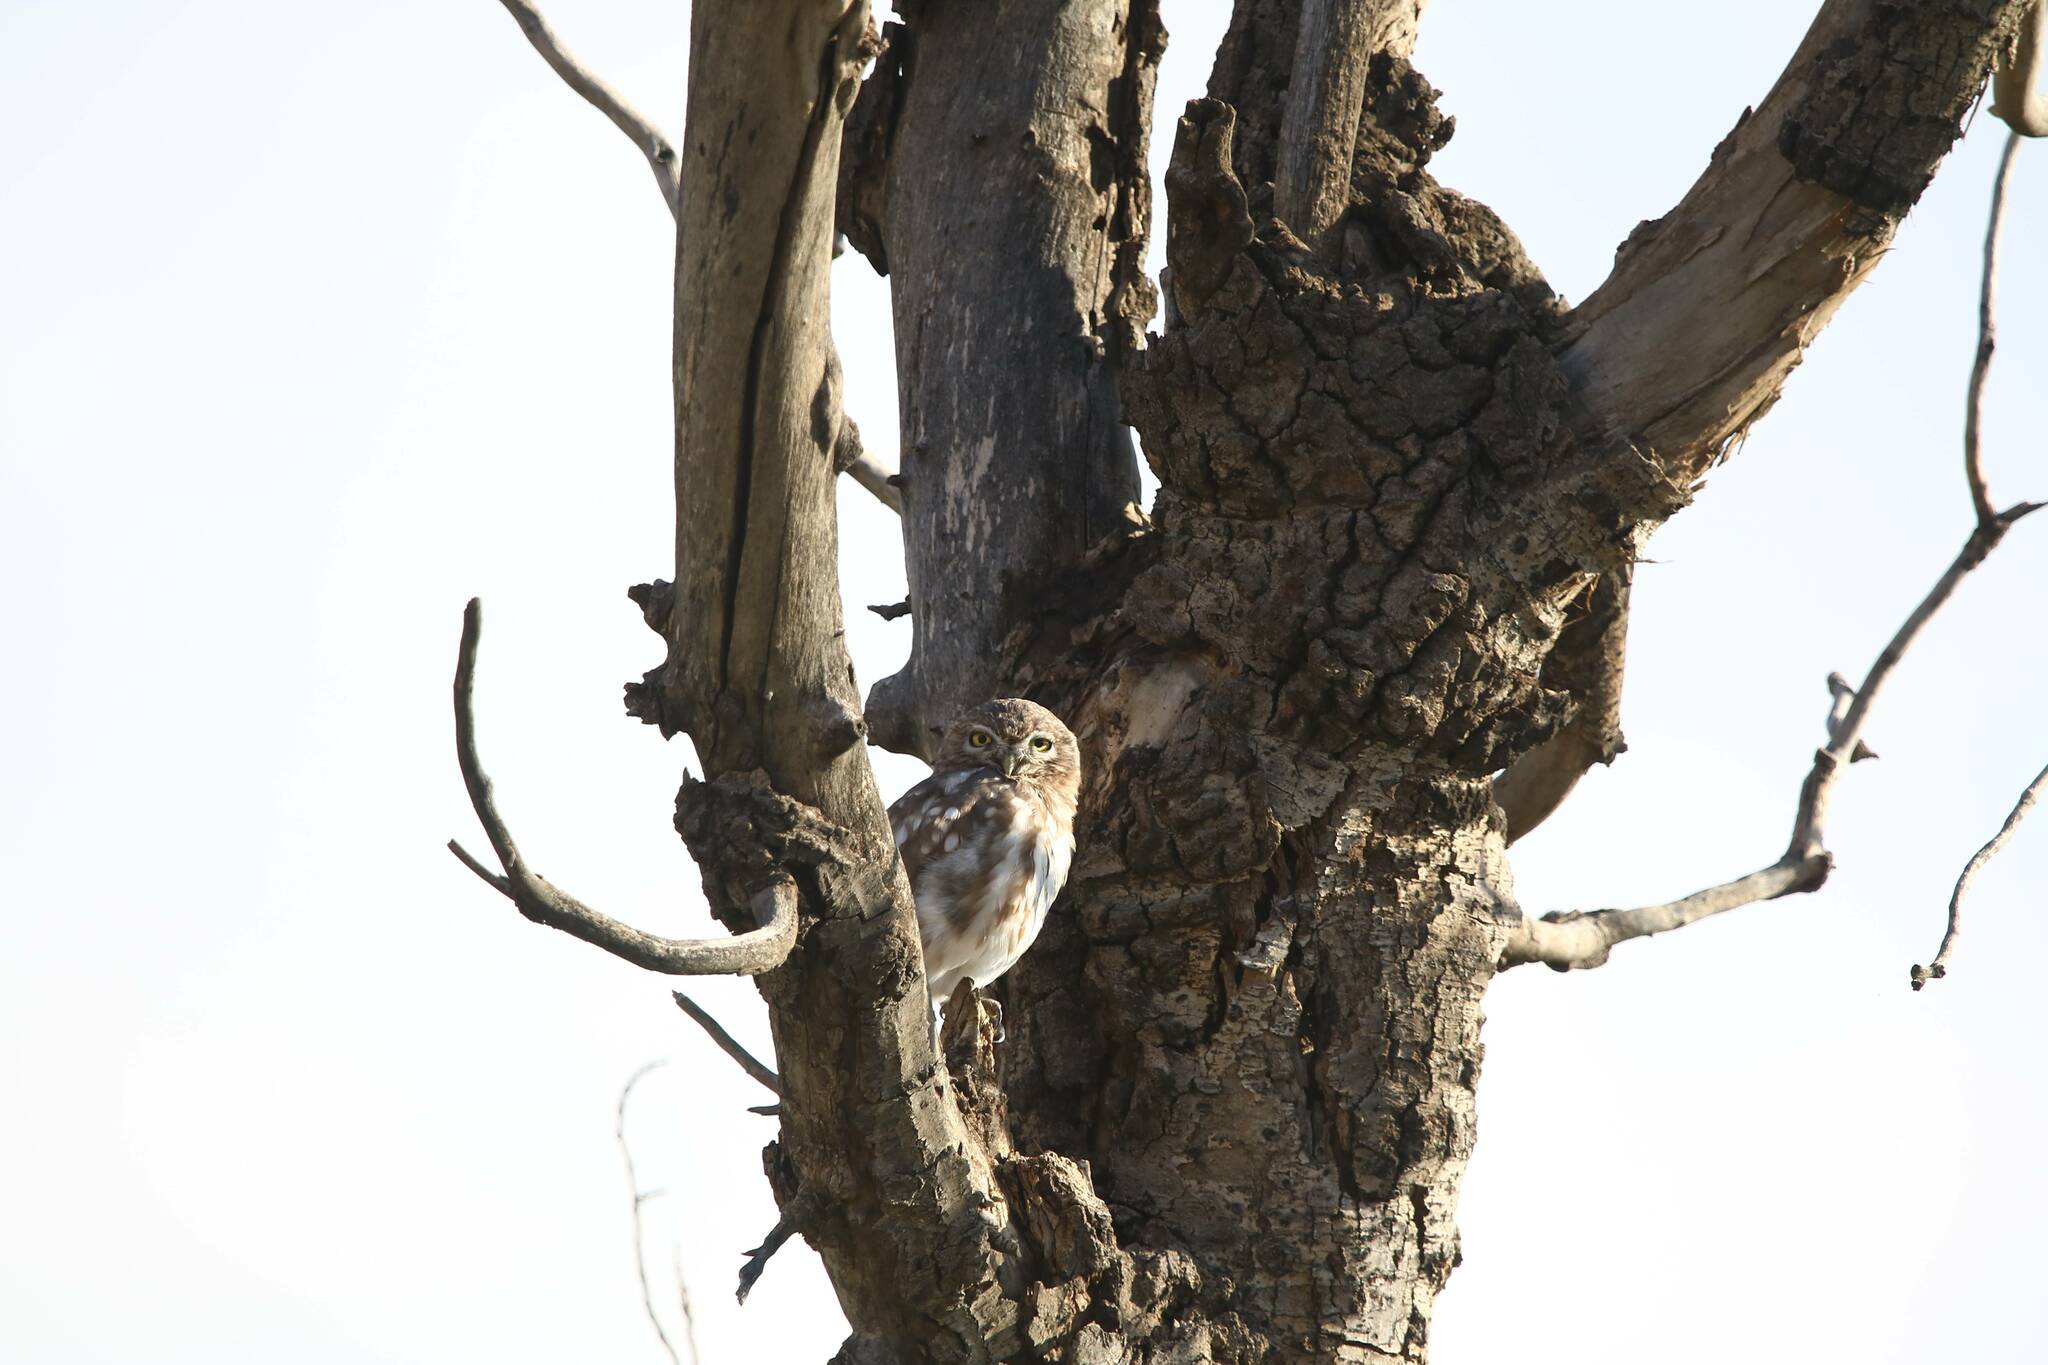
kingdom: Animalia
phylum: Chordata
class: Aves
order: Strigiformes
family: Strigidae
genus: Athene
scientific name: Athene noctua
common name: Little owl
